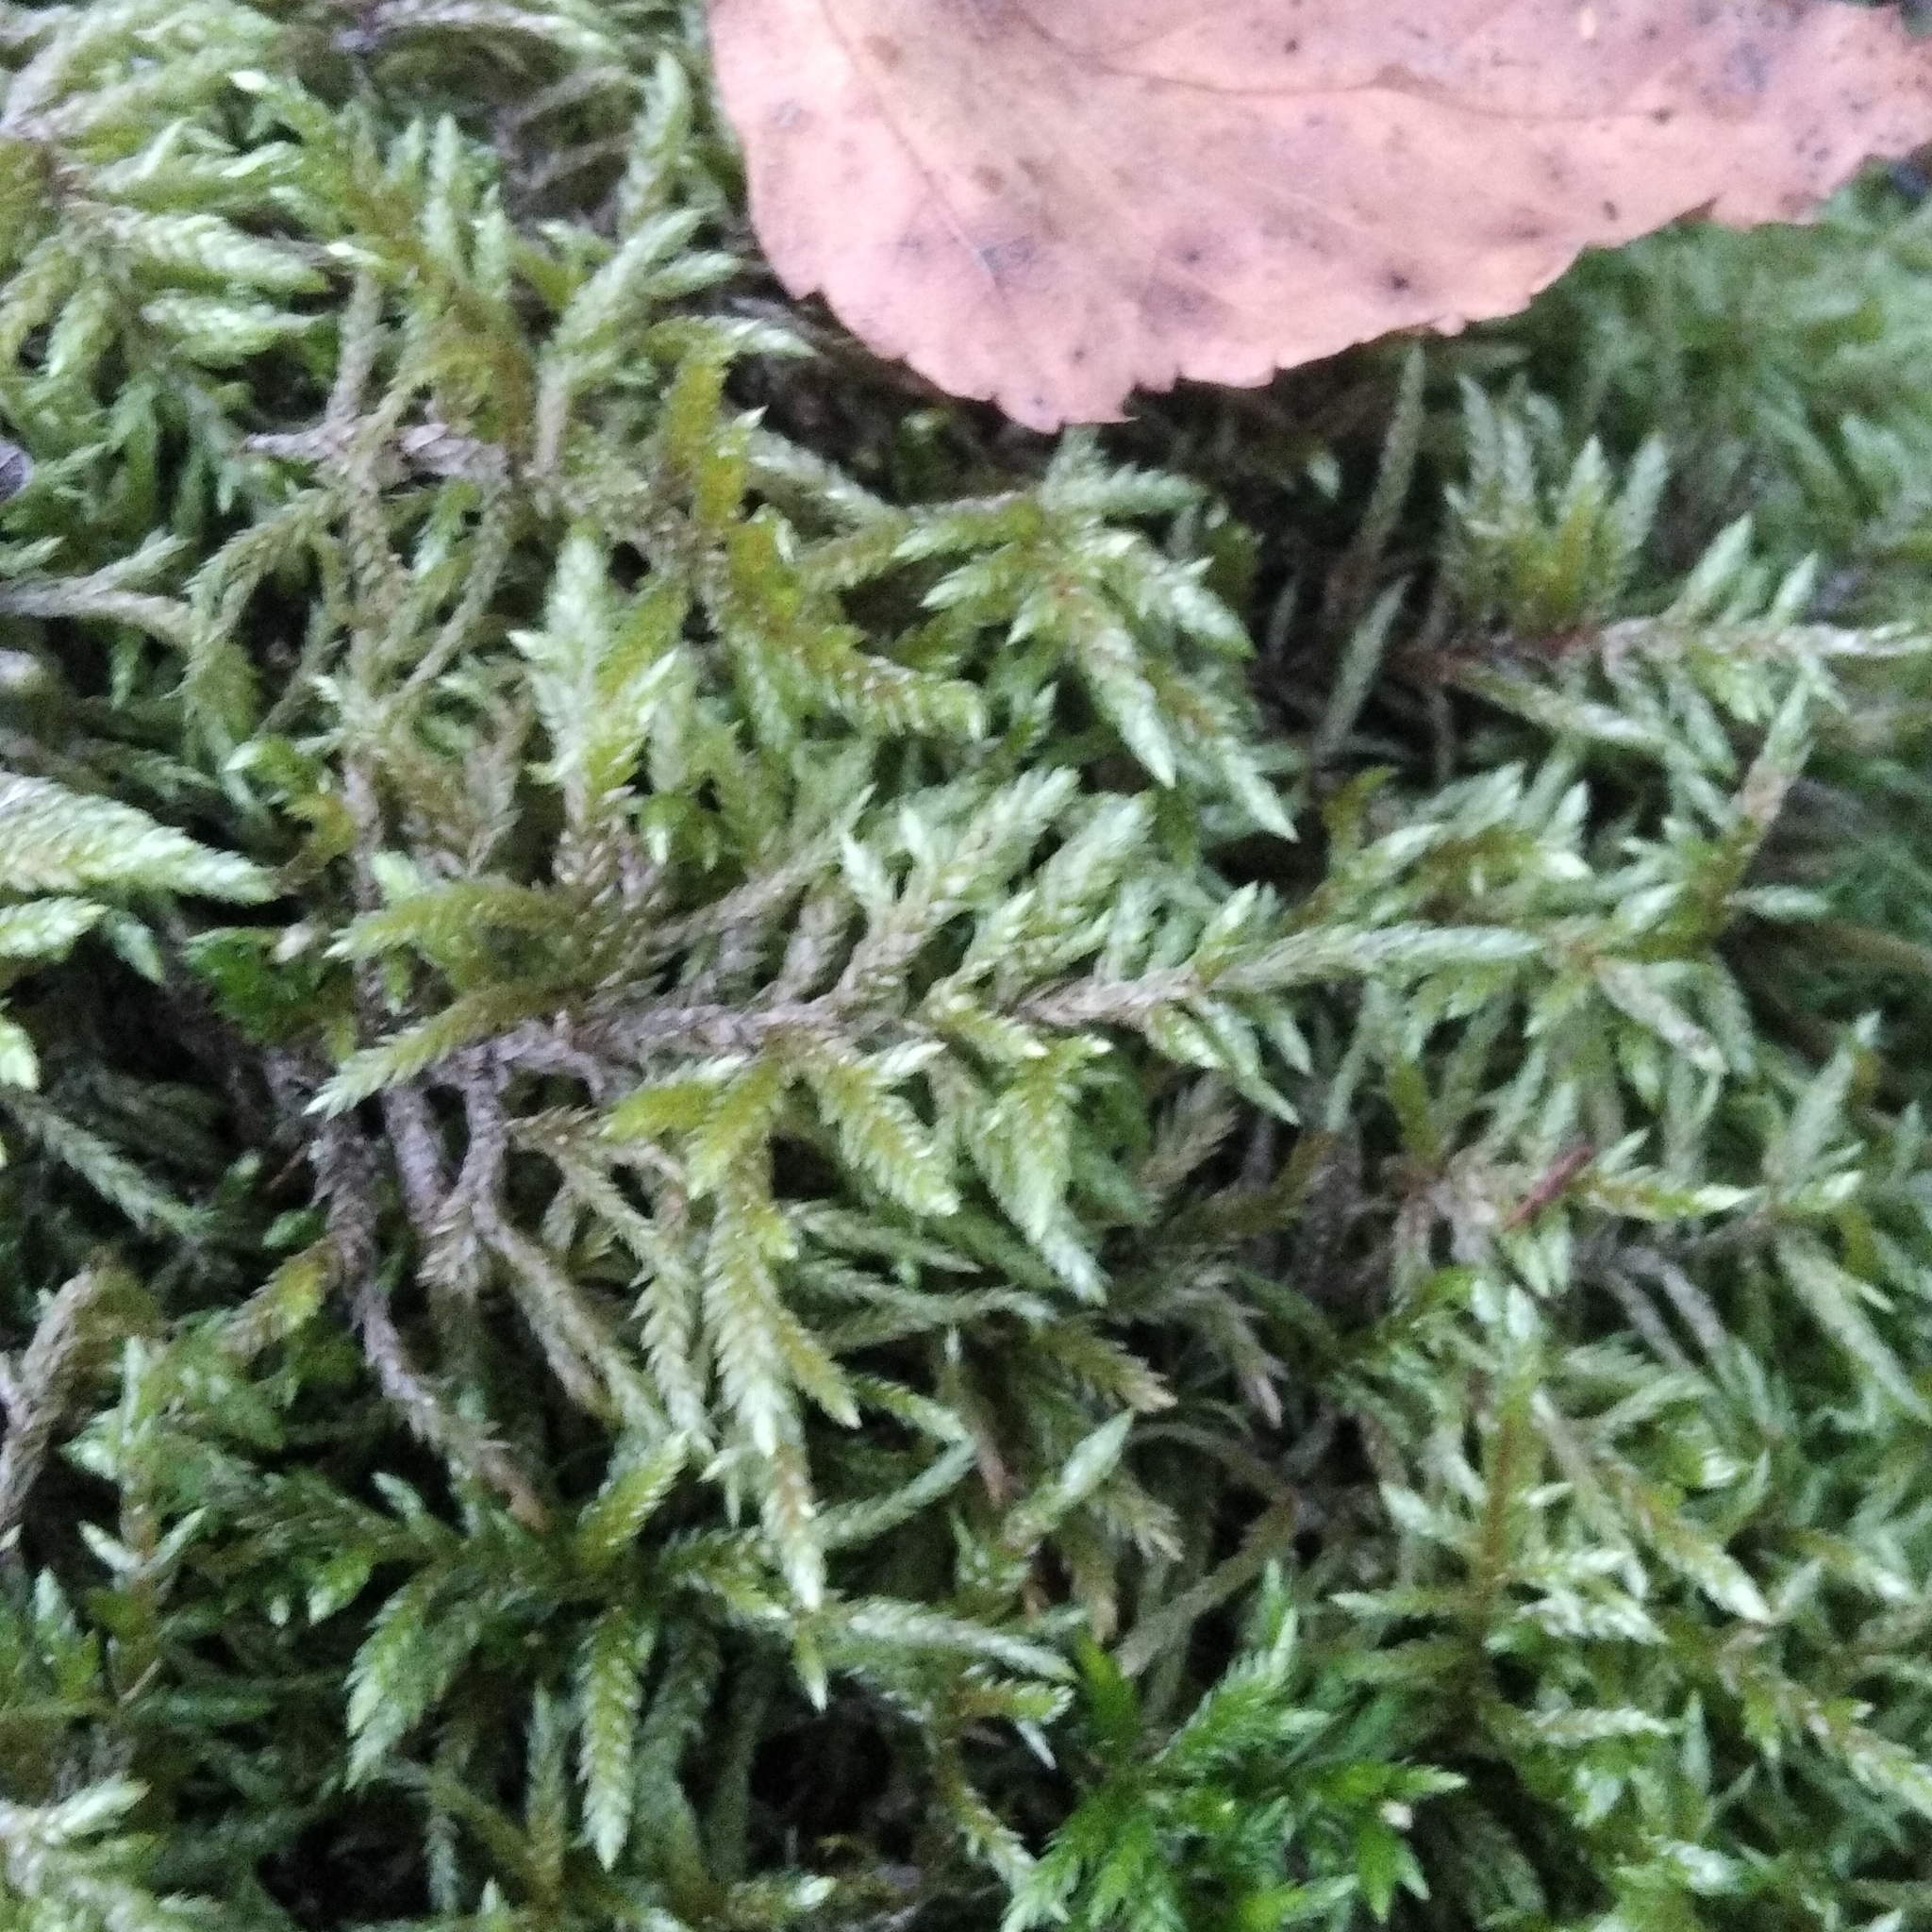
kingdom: Plantae
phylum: Bryophyta
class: Bryopsida
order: Hypnales
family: Hylocomiaceae
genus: Pleurozium
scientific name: Pleurozium schreberi
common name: Red-stemmed feather moss
